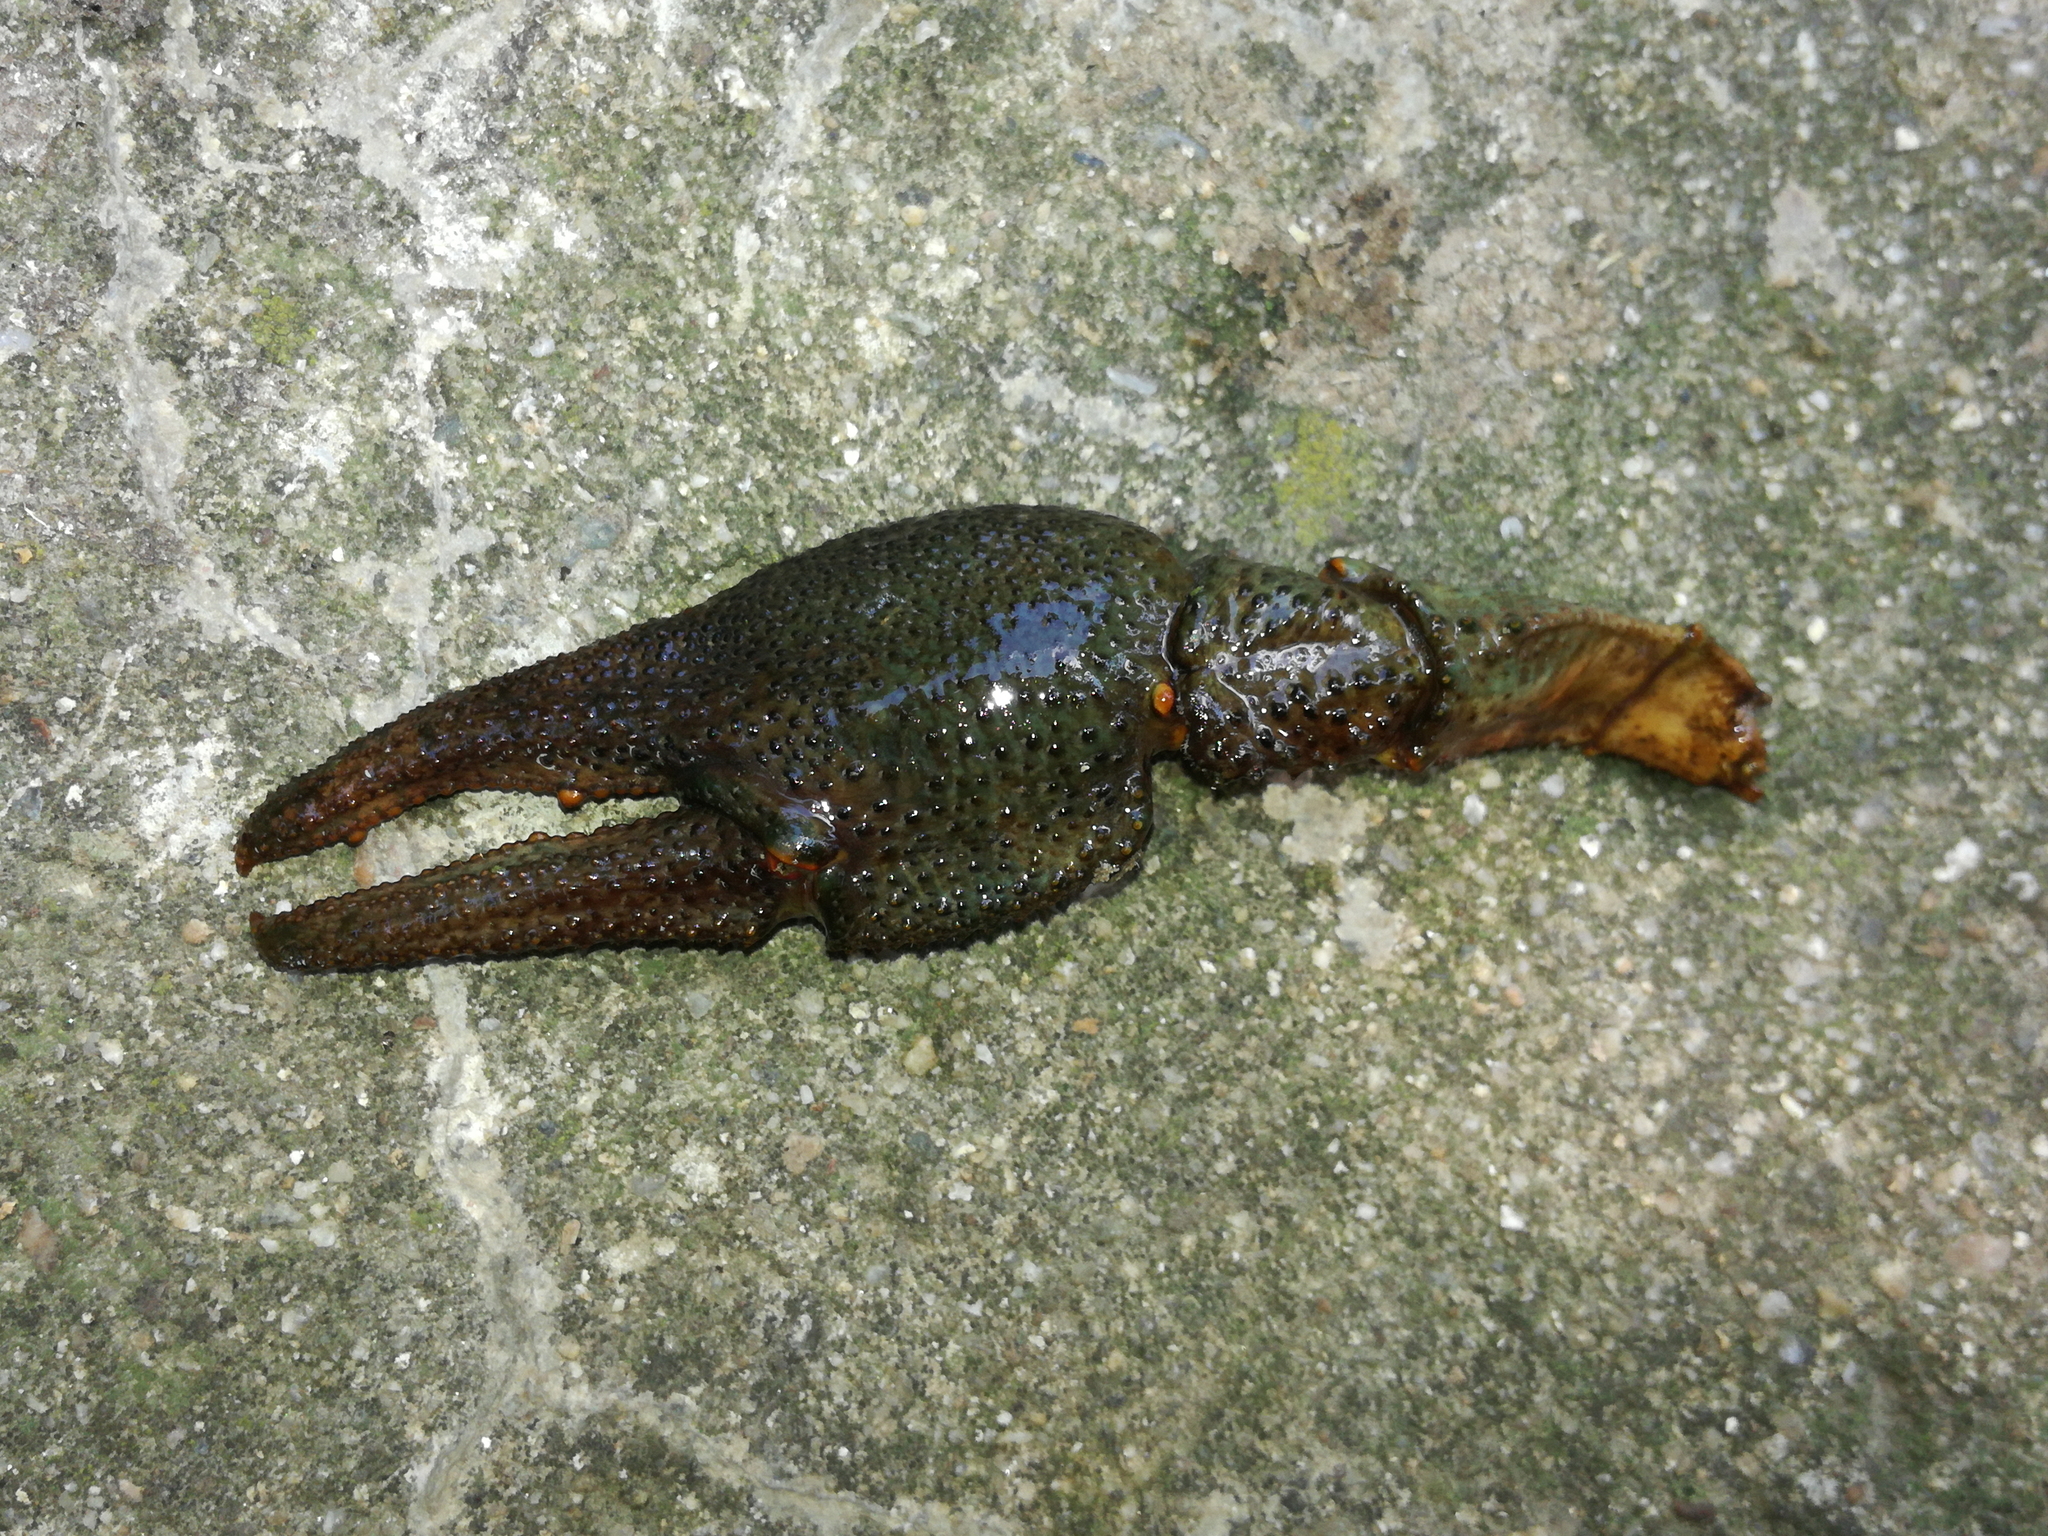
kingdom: Animalia
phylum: Arthropoda
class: Malacostraca
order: Decapoda
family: Astacidae
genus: Astacus
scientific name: Astacus astacus
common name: Noble crayfish
